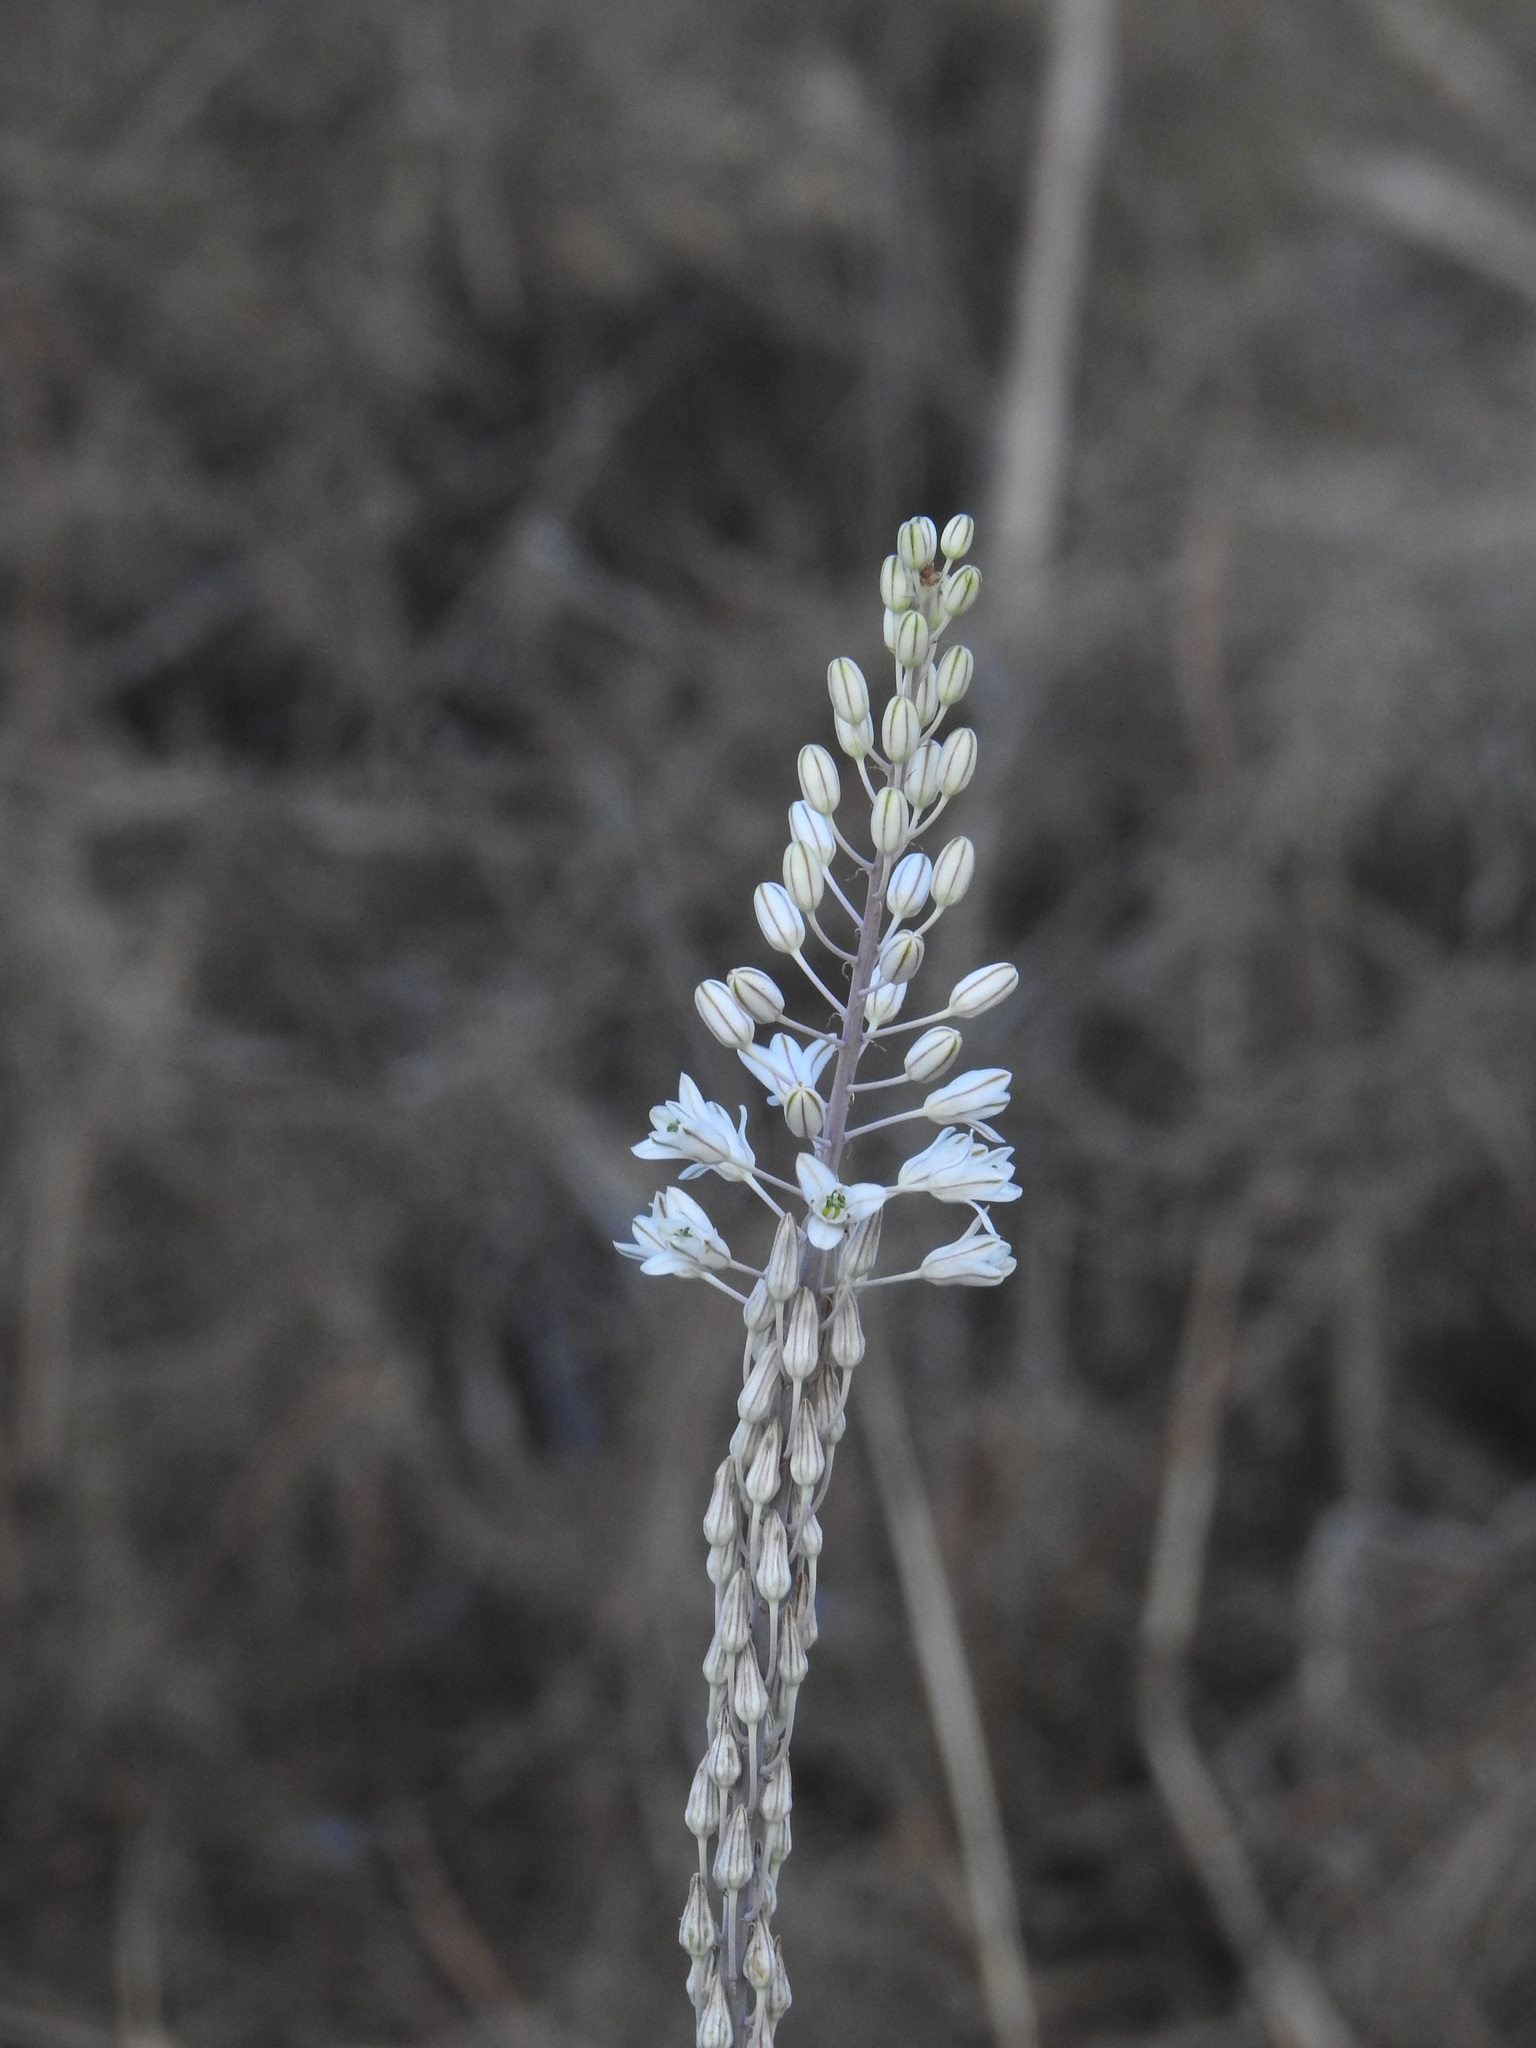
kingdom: Plantae
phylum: Tracheophyta
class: Liliopsida
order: Asparagales
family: Asparagaceae
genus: Drimia
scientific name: Drimia maritima
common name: Maritime squill
